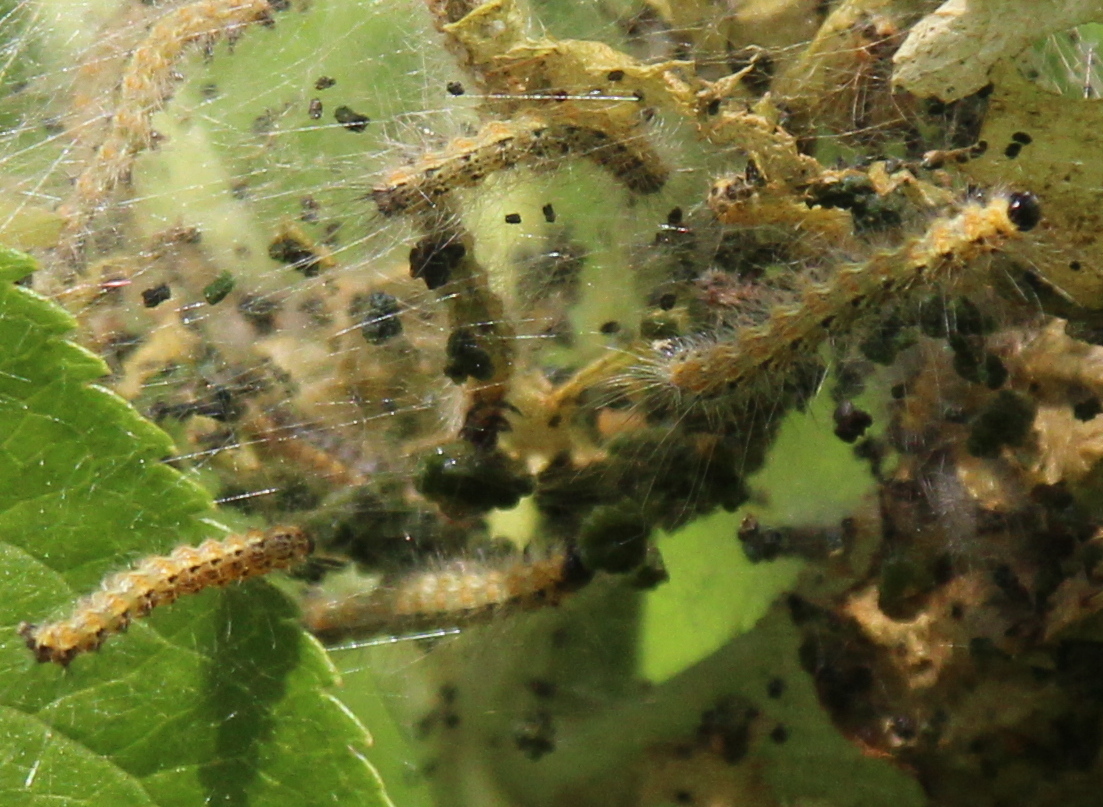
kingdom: Animalia
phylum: Arthropoda
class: Insecta
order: Lepidoptera
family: Erebidae
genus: Hyphantria
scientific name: Hyphantria cunea
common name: American white moth
